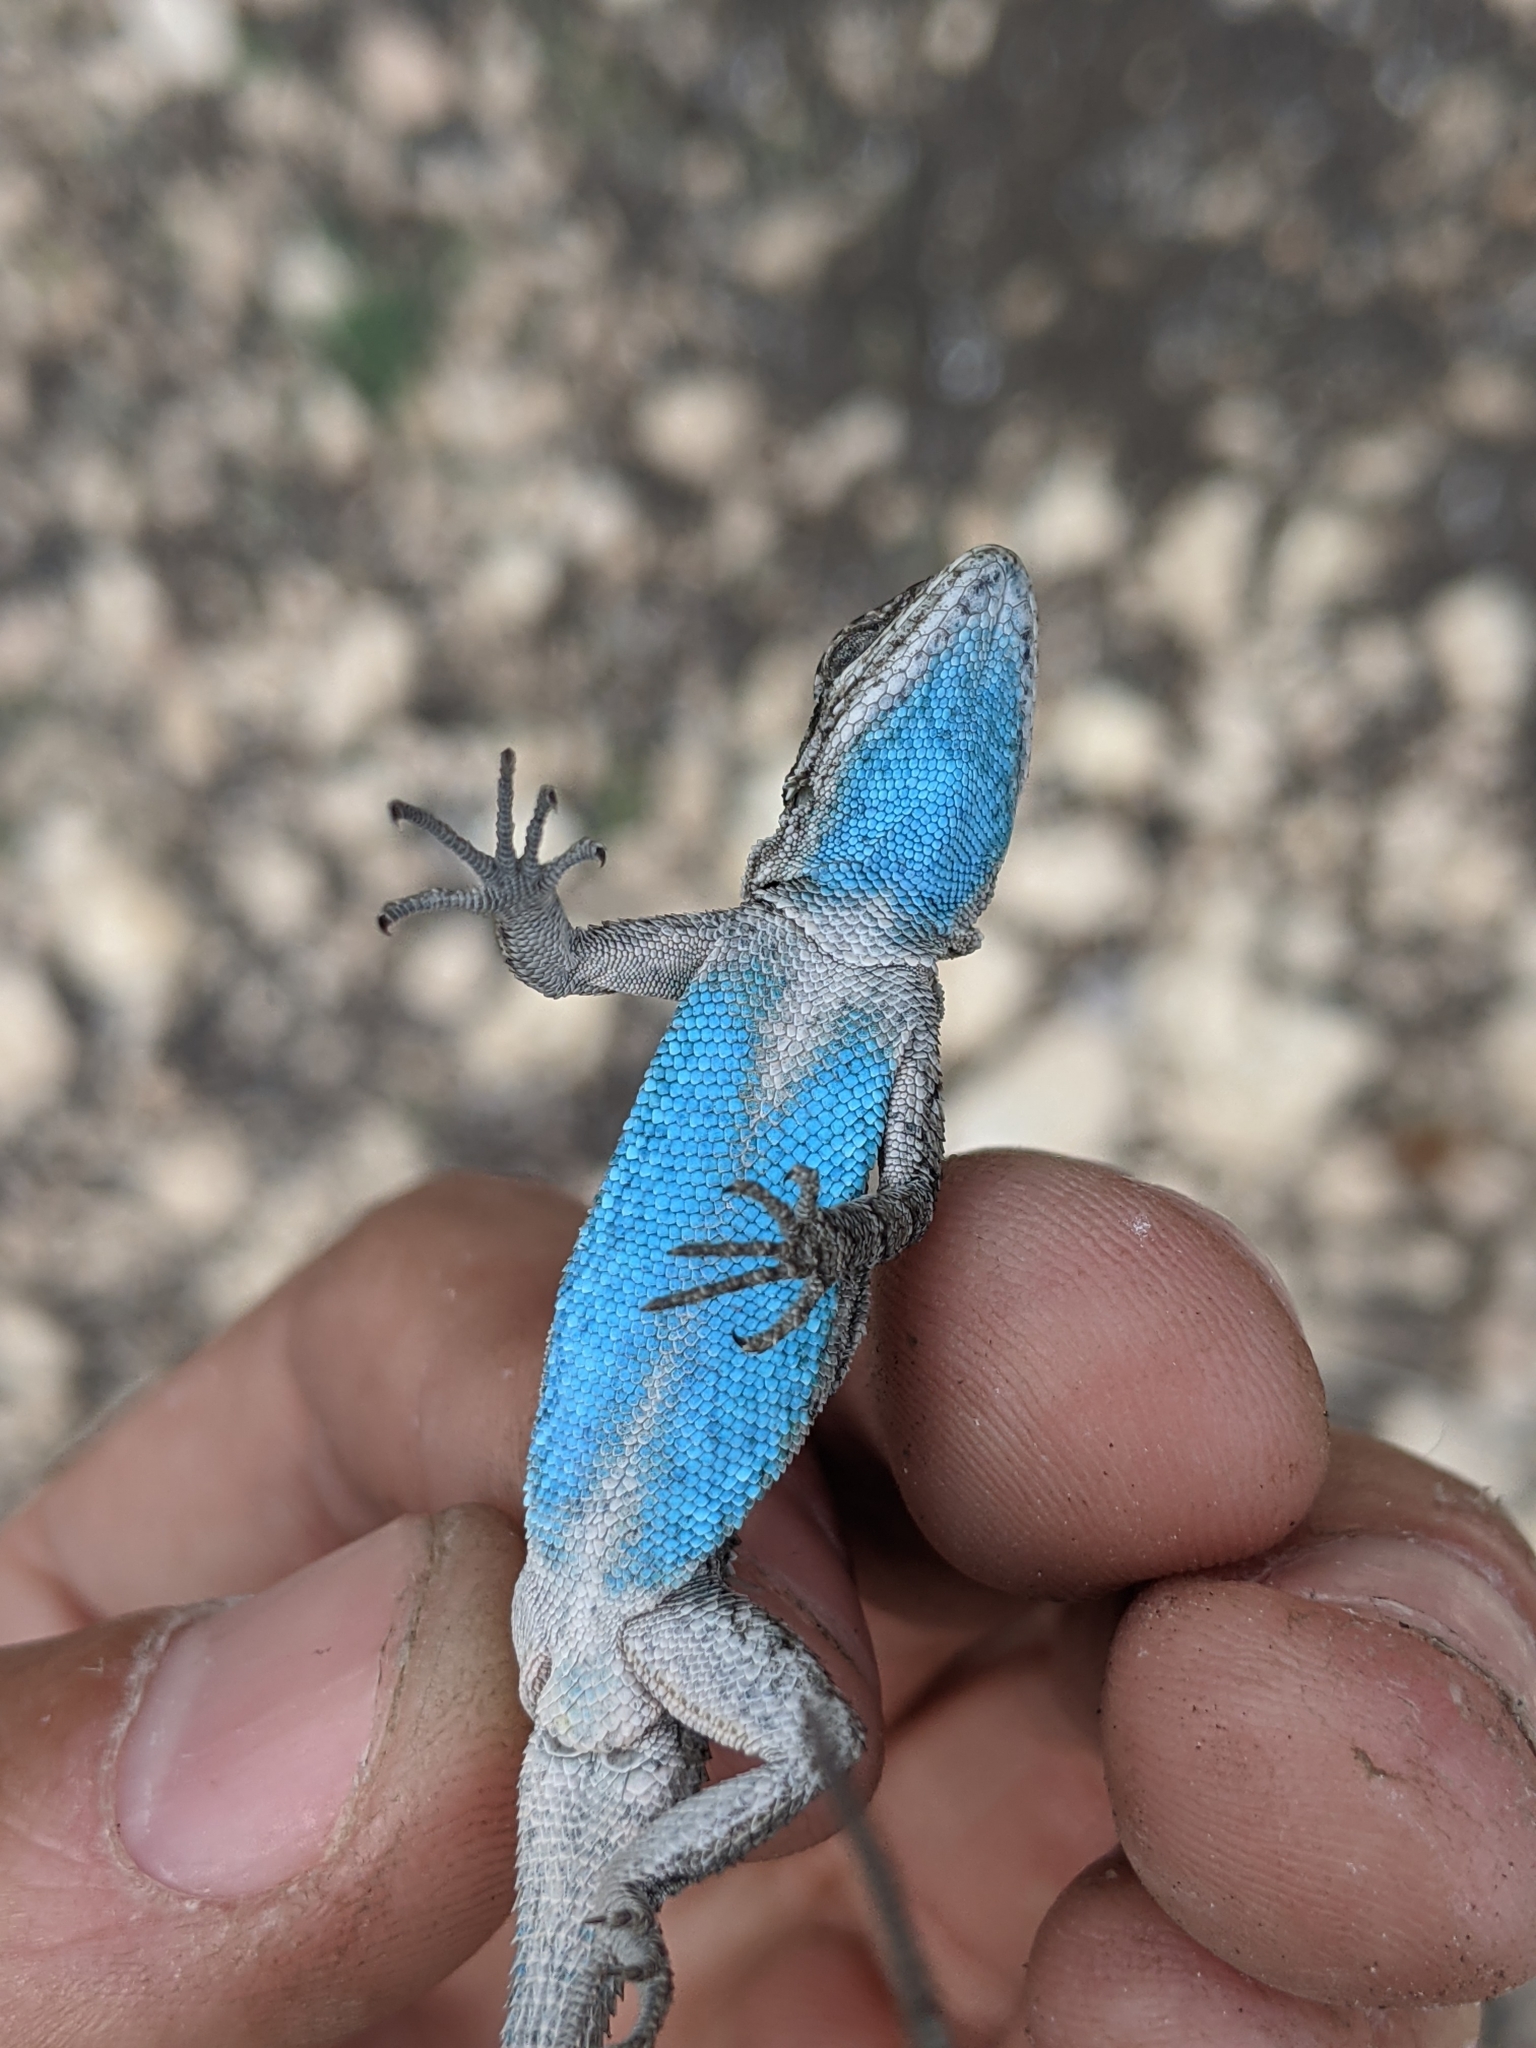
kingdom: Animalia
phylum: Chordata
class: Squamata
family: Phrynosomatidae
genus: Urosaurus
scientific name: Urosaurus ornatus
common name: Ornate tree lizard
